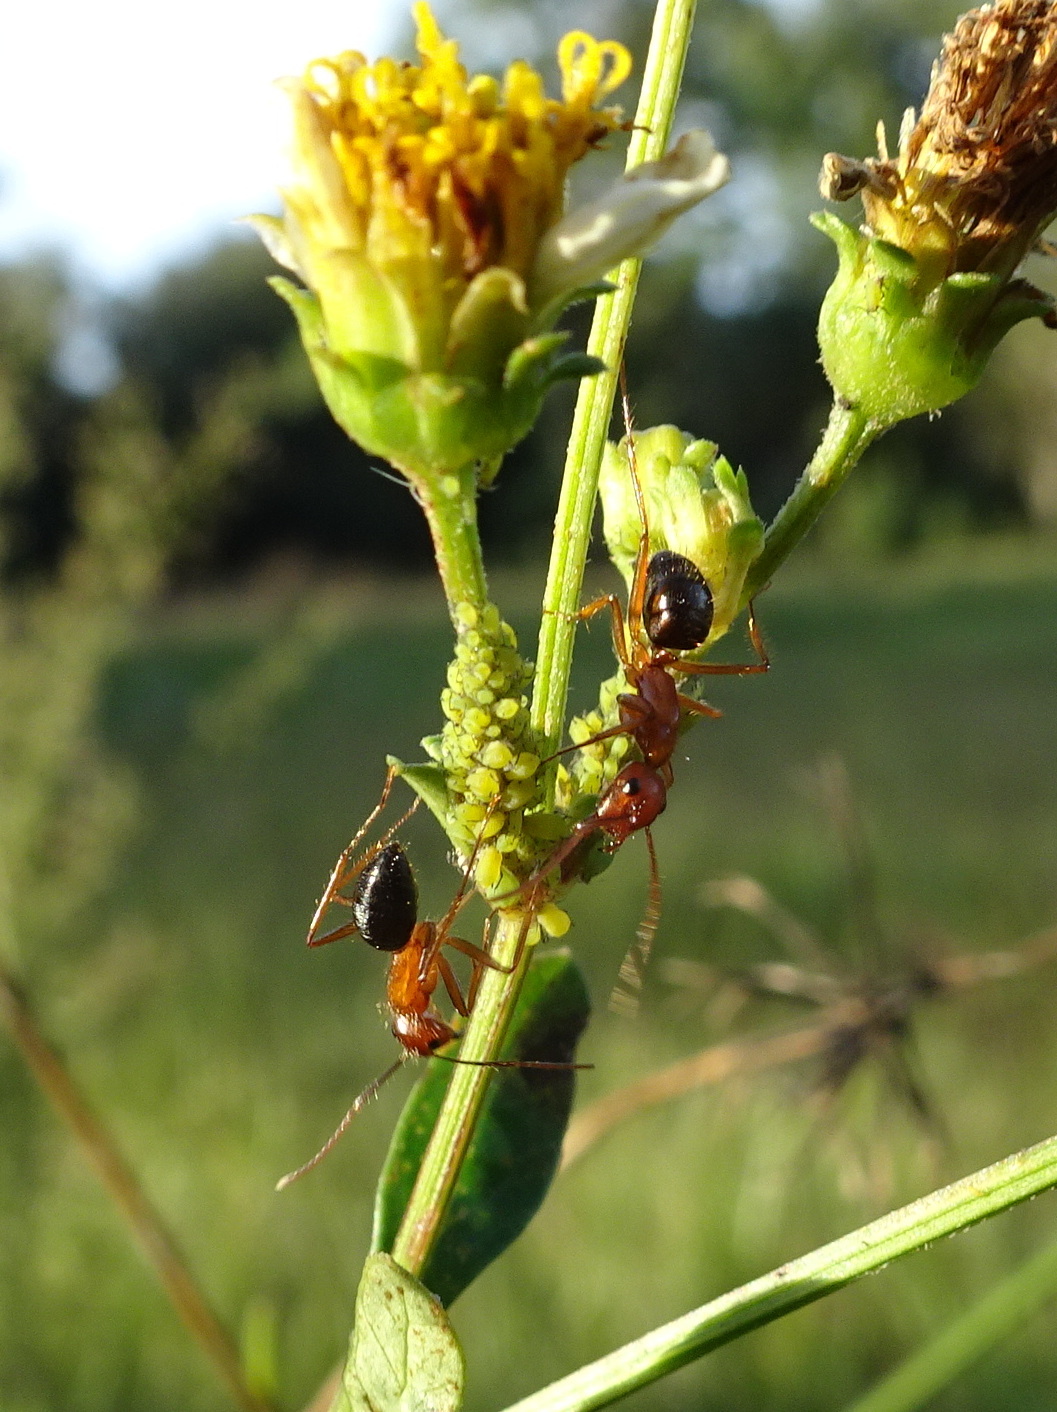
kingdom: Animalia
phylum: Arthropoda
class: Insecta
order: Hymenoptera
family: Formicidae
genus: Camponotus
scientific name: Camponotus floridanus
